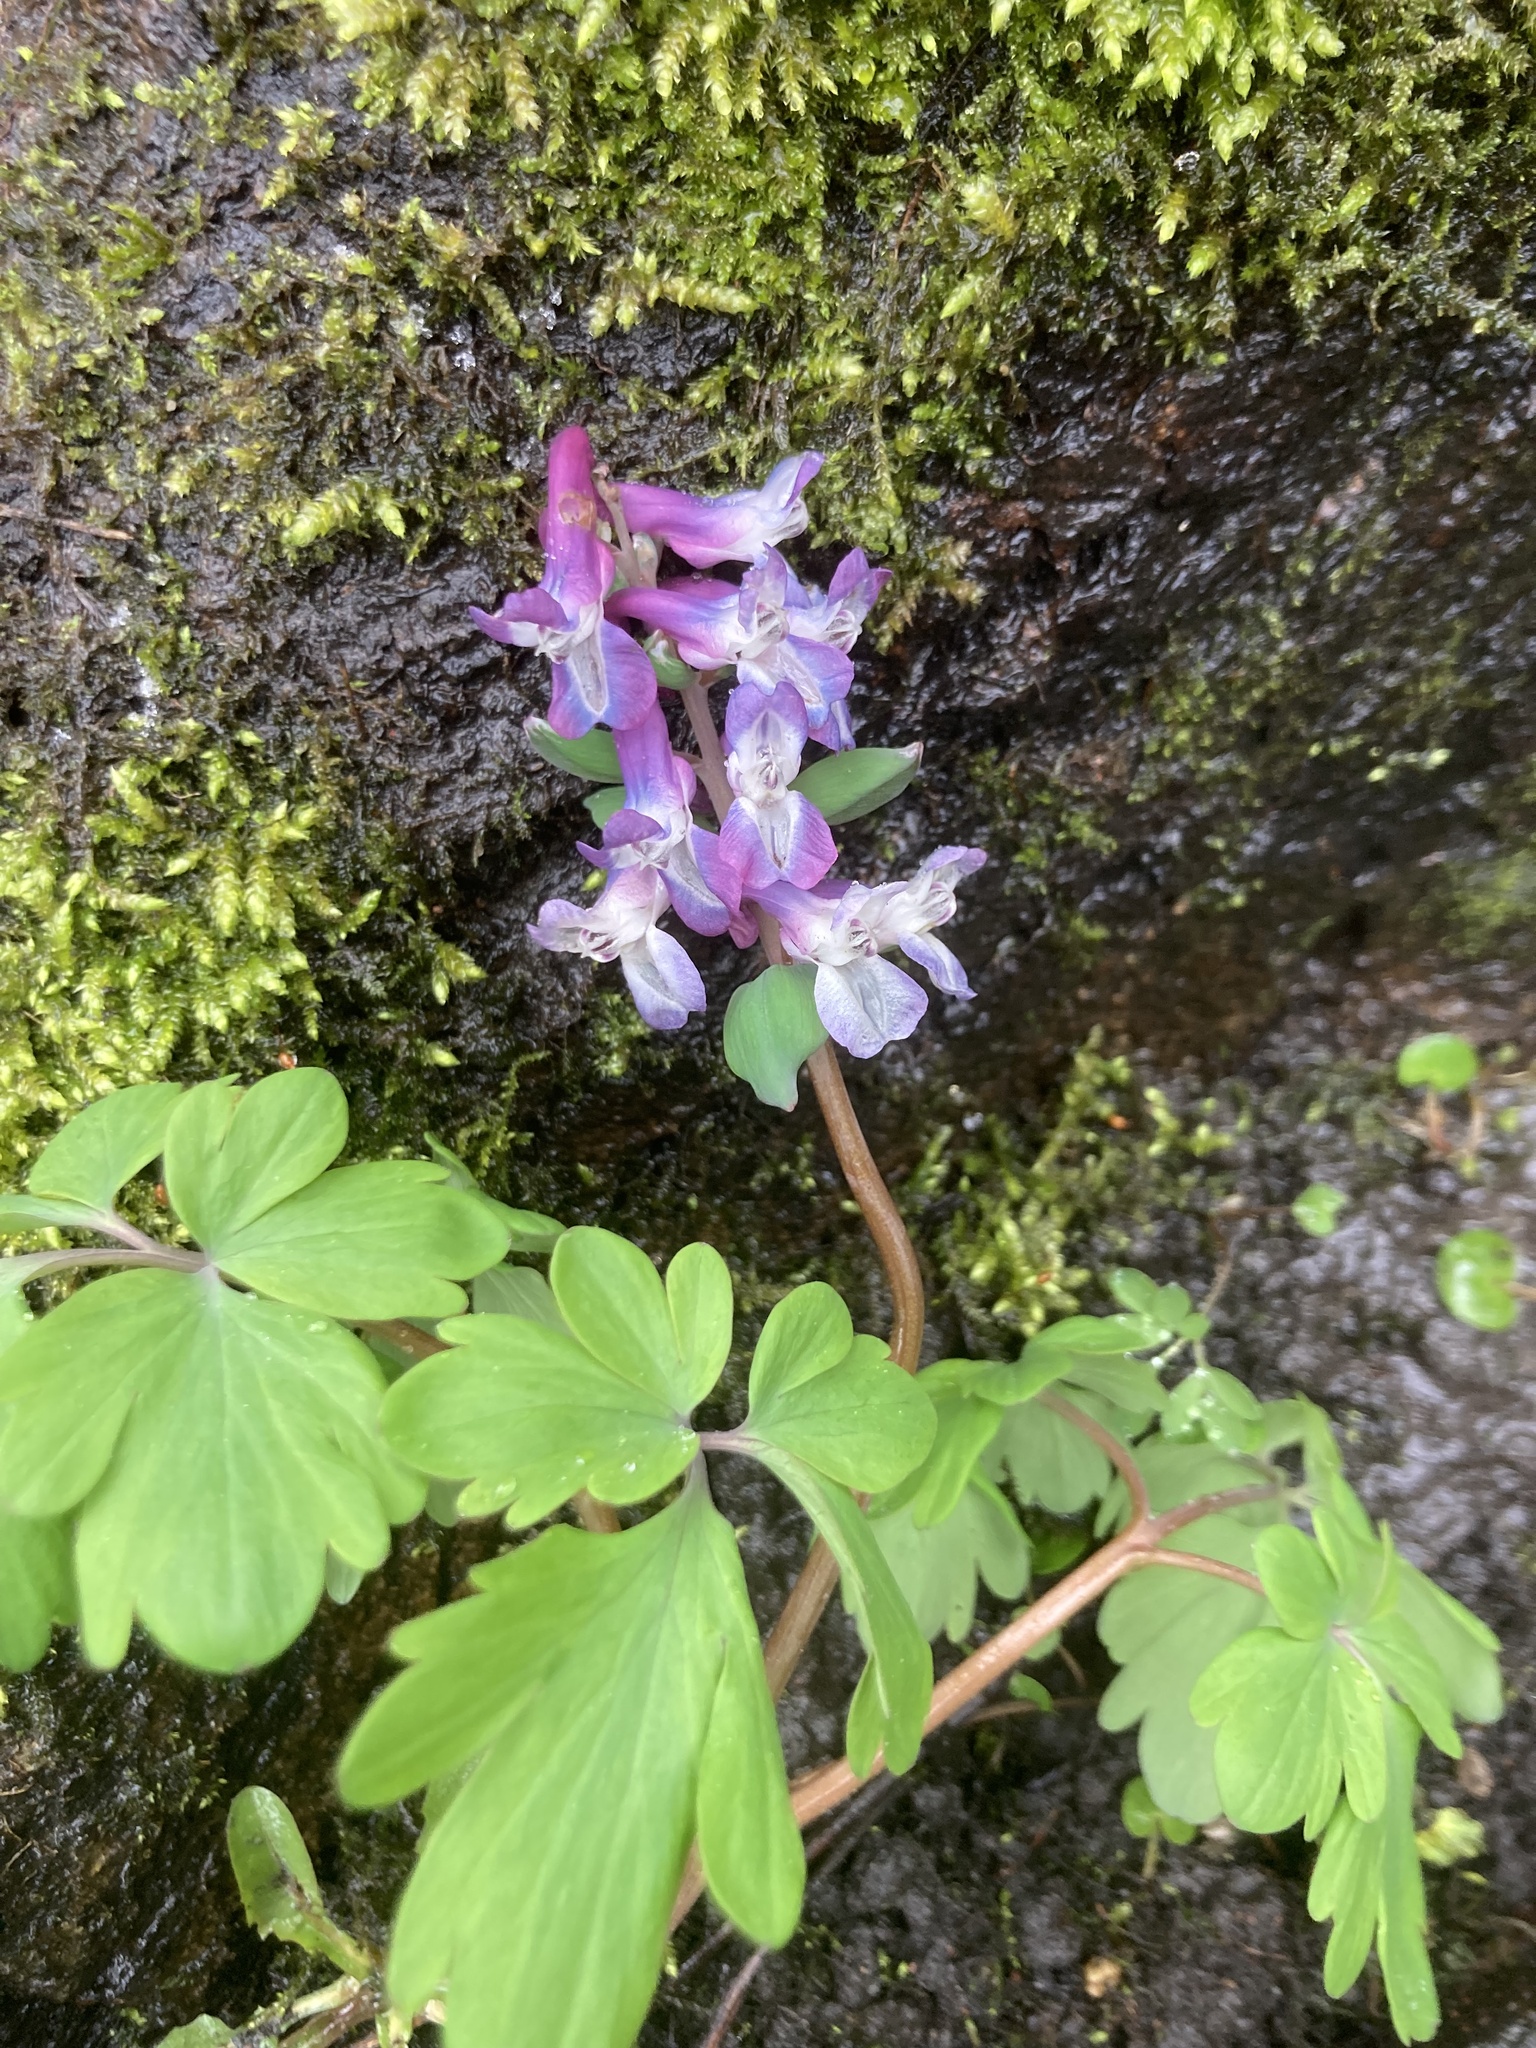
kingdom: Plantae
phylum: Tracheophyta
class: Magnoliopsida
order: Ranunculales
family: Papaveraceae
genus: Corydalis
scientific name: Corydalis cava
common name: Hollowroot
